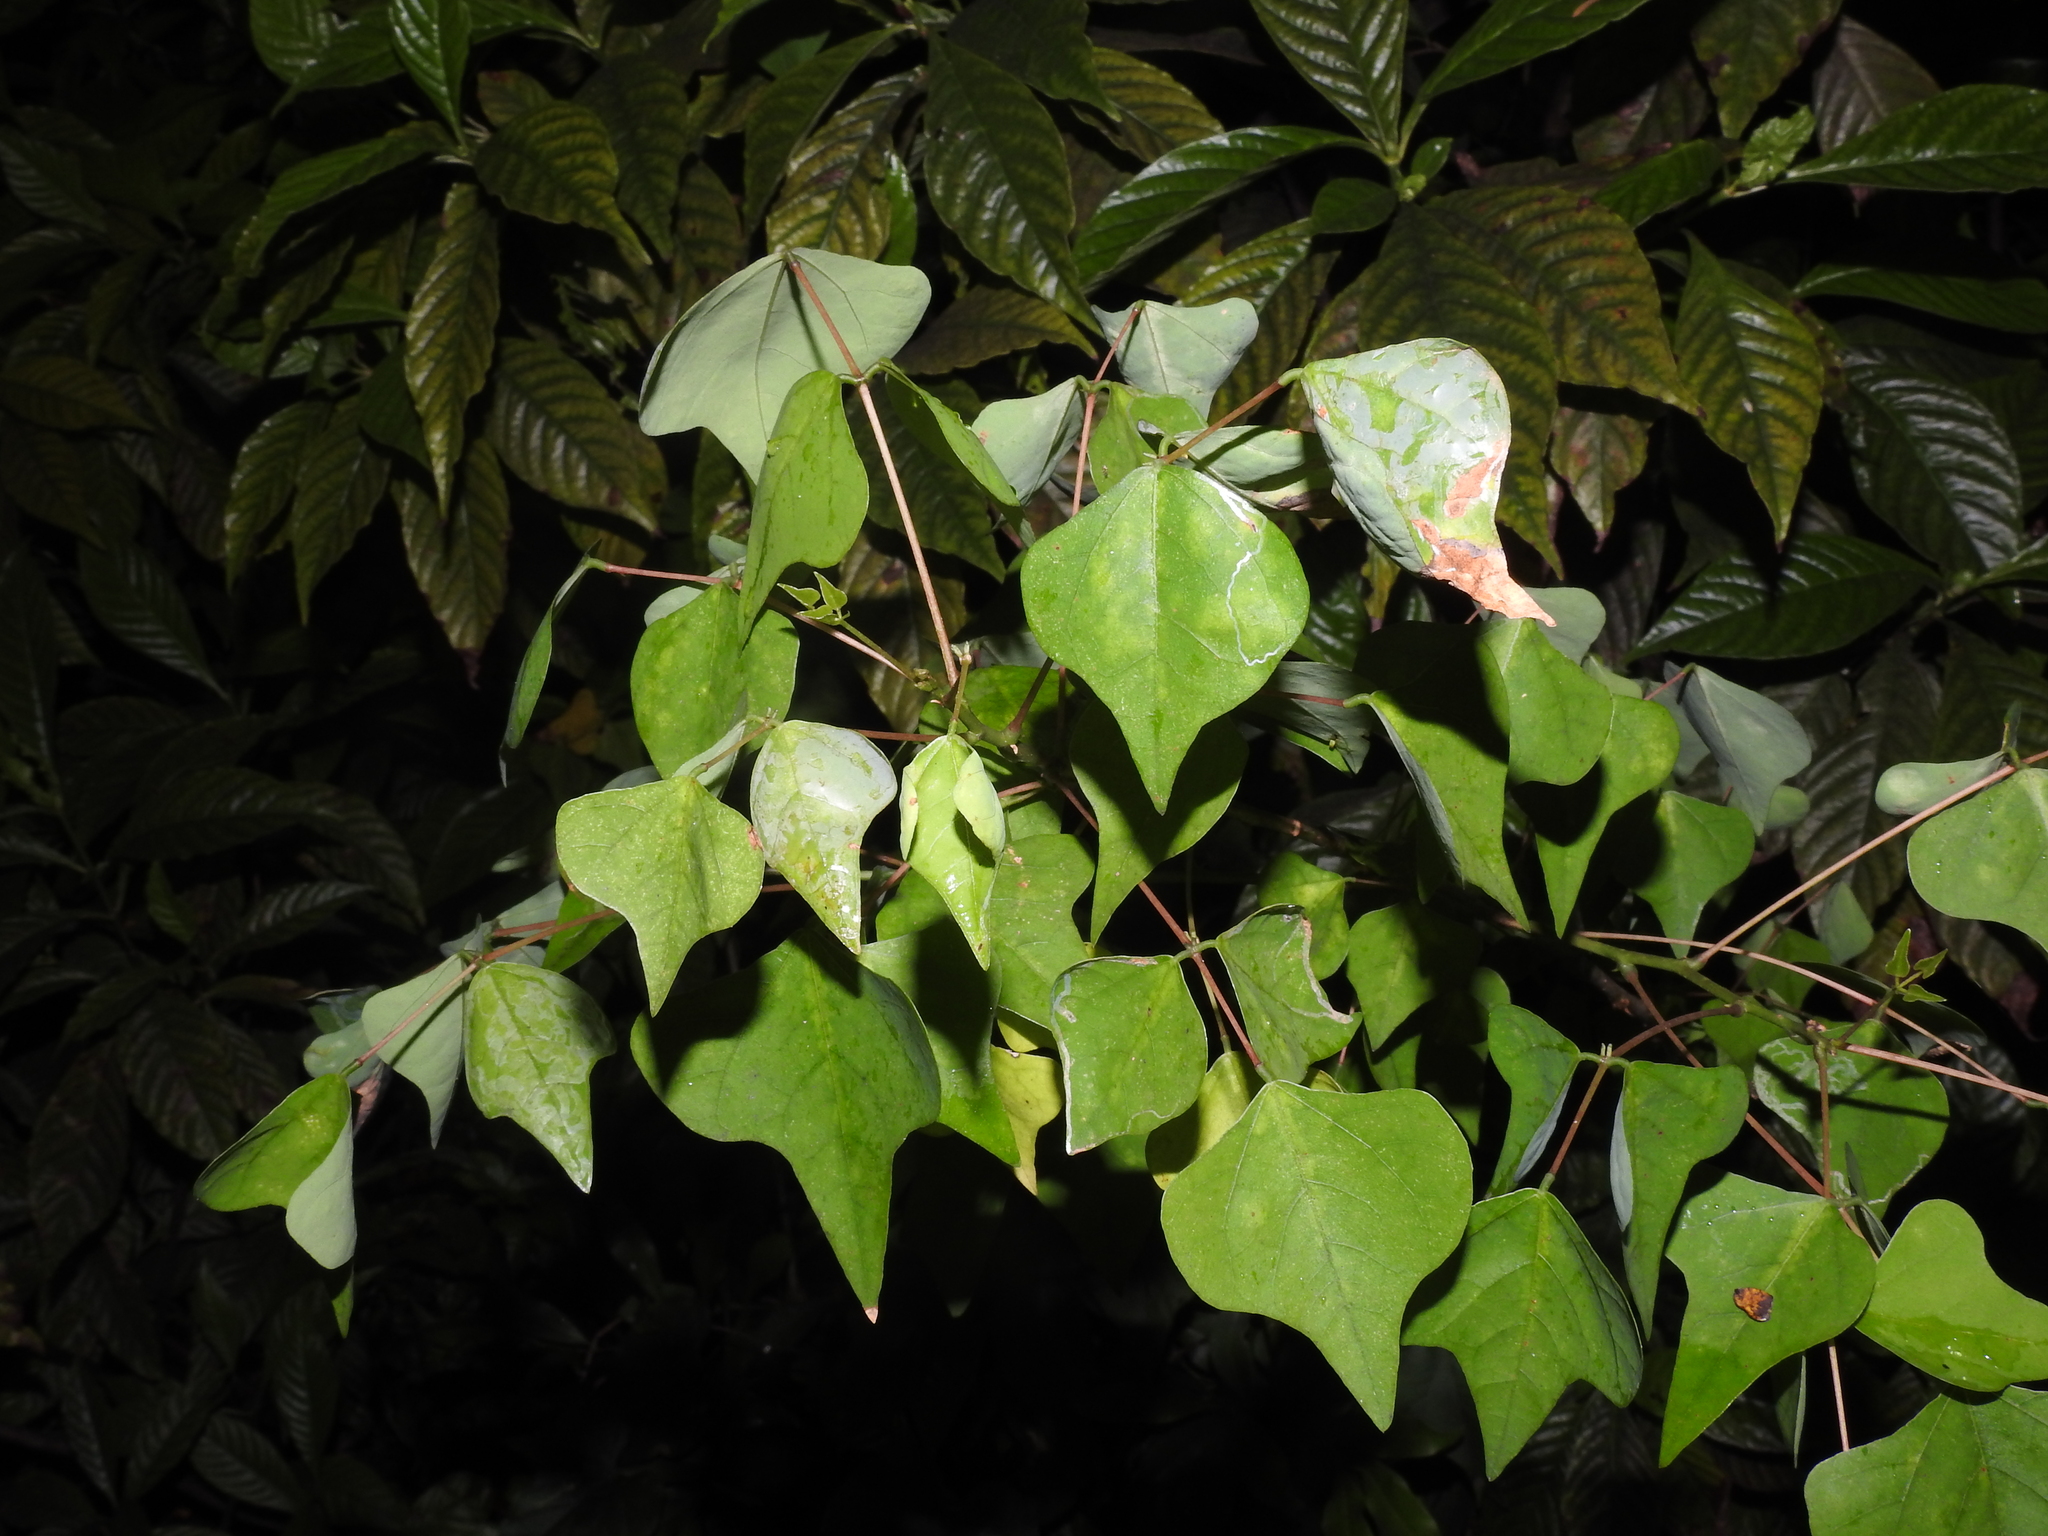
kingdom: Plantae
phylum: Tracheophyta
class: Magnoliopsida
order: Fabales
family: Fabaceae
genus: Erythrina
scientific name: Erythrina herbacea
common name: Coral-bean
